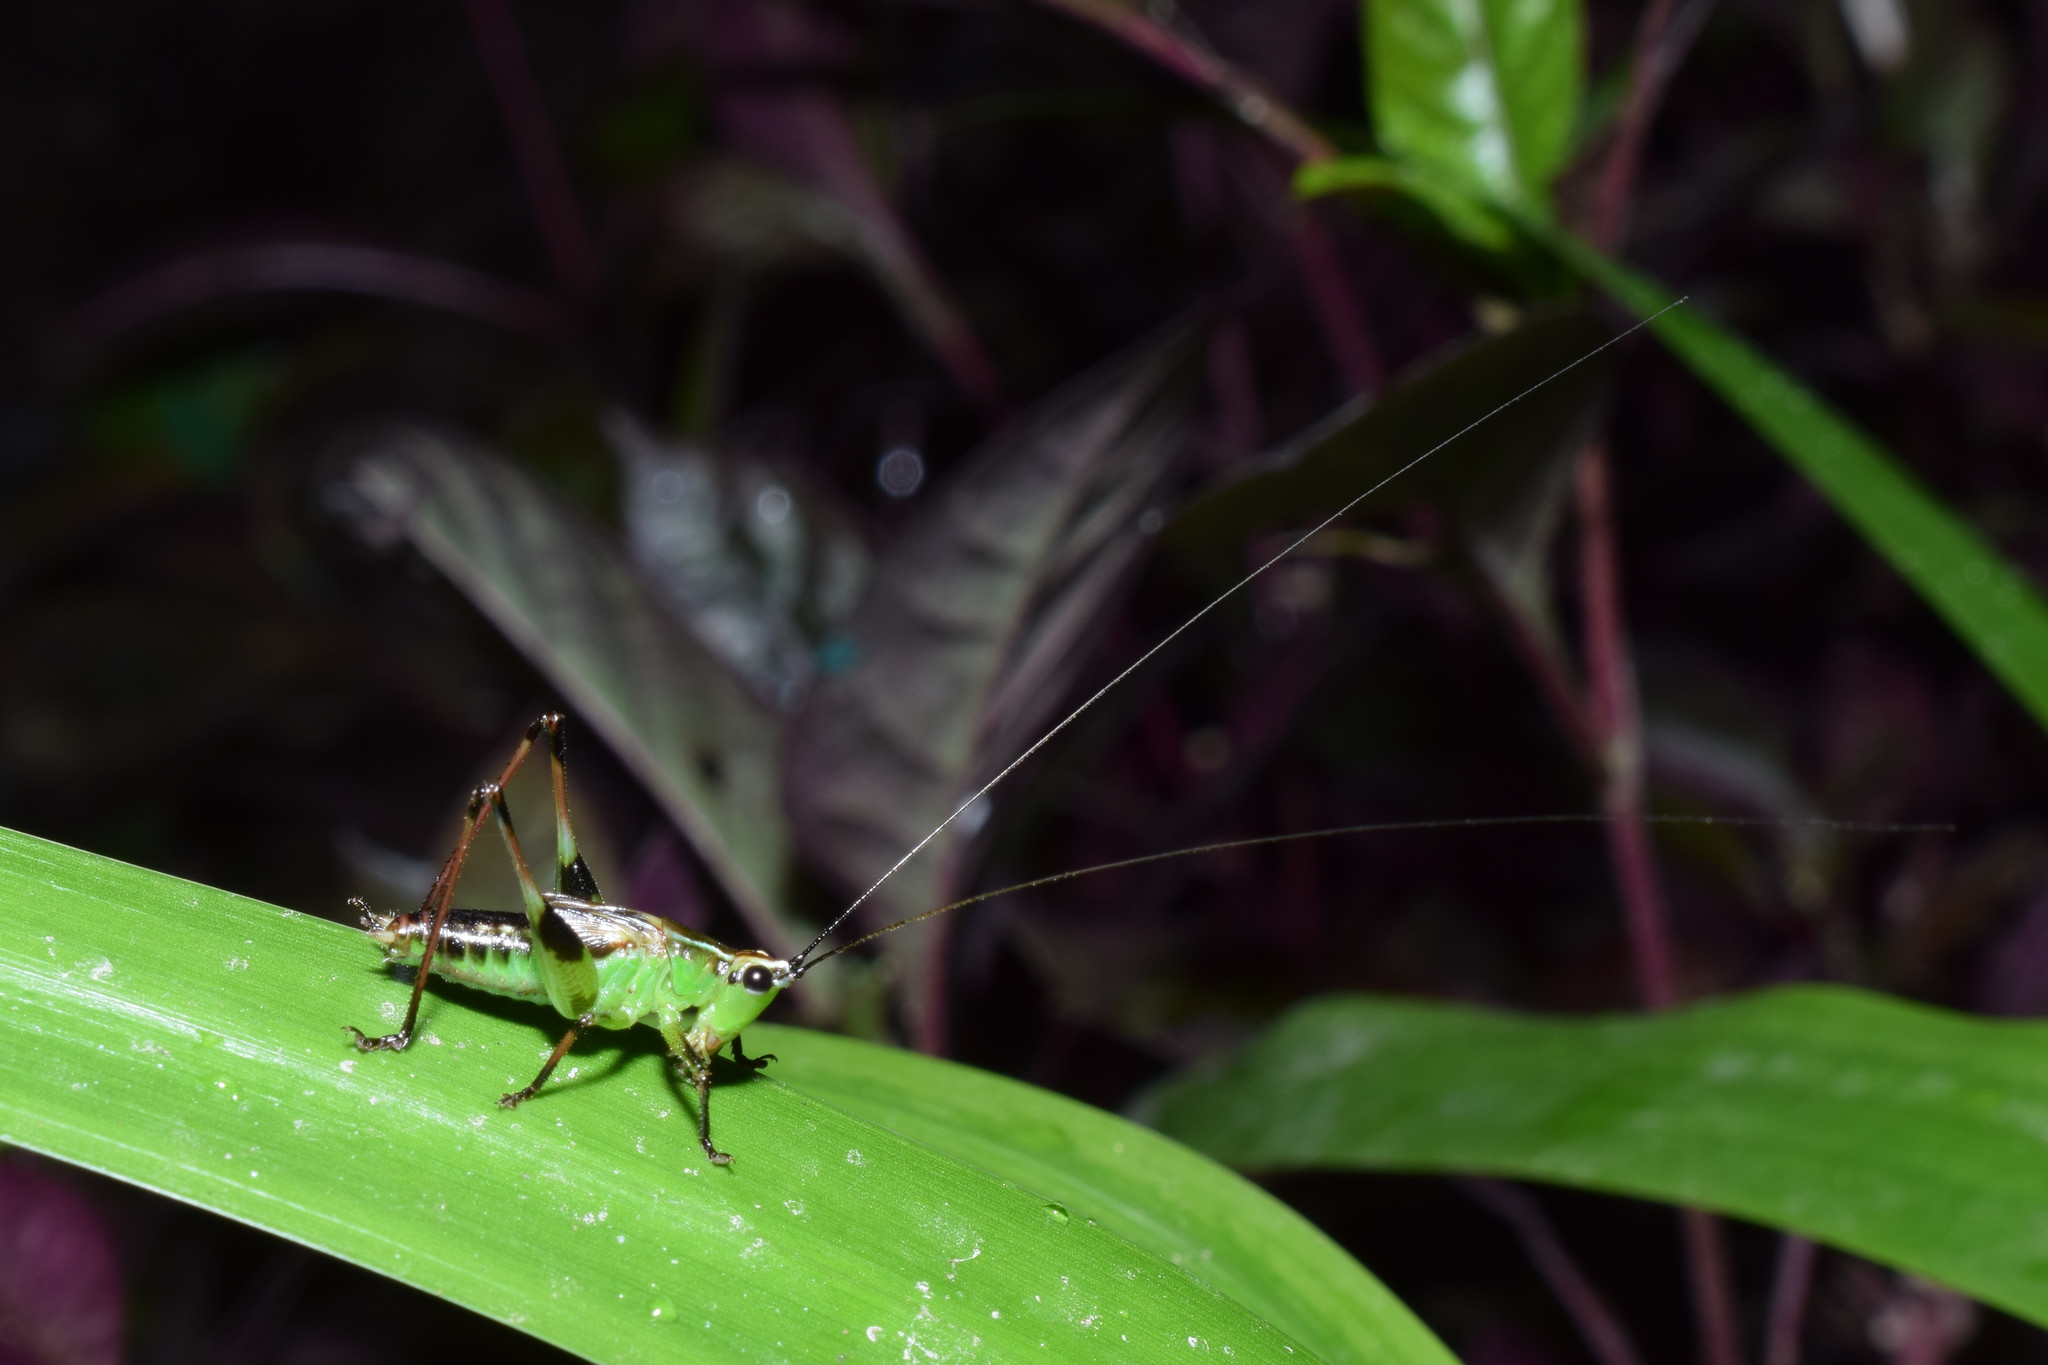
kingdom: Animalia
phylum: Arthropoda
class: Insecta
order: Orthoptera
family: Tettigoniidae
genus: Conocephalus
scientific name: Conocephalus melaenus
